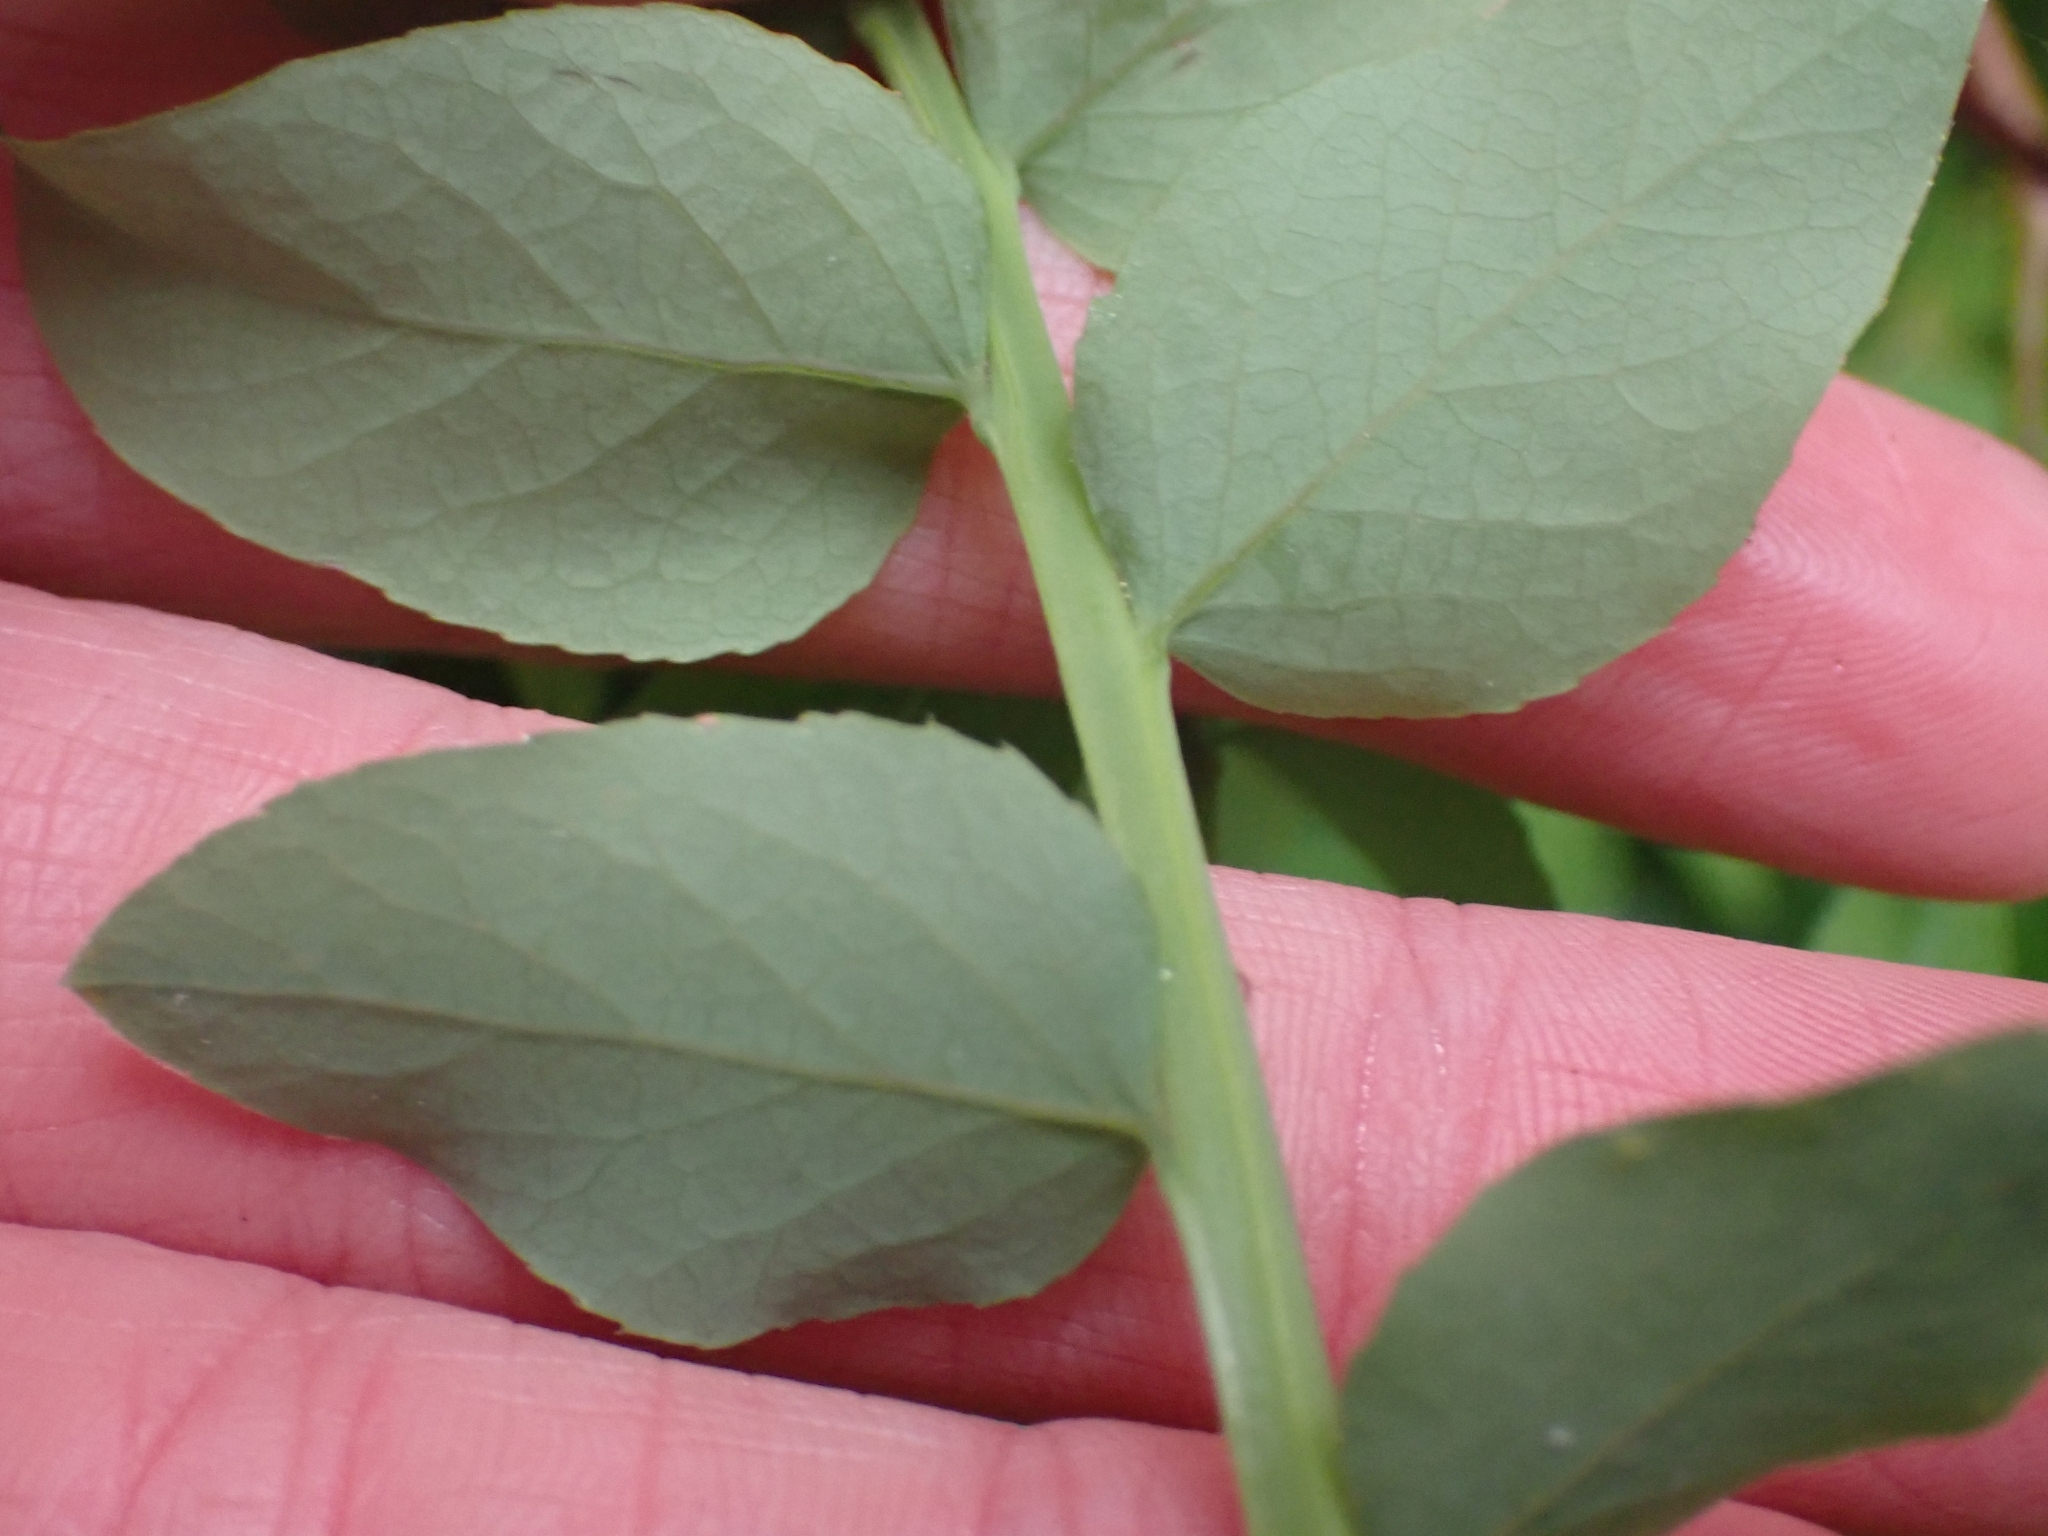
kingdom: Plantae
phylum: Tracheophyta
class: Magnoliopsida
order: Ericales
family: Ericaceae
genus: Vaccinium
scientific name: Vaccinium parvifolium
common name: Red-huckleberry
